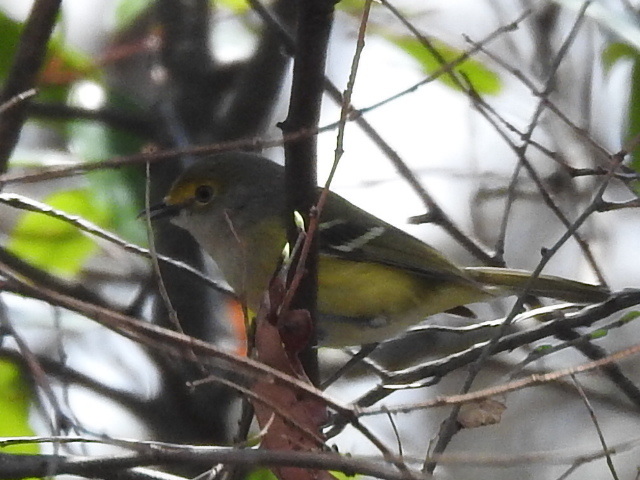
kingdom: Animalia
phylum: Chordata
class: Aves
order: Passeriformes
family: Vireonidae
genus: Vireo
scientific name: Vireo griseus
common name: White-eyed vireo
